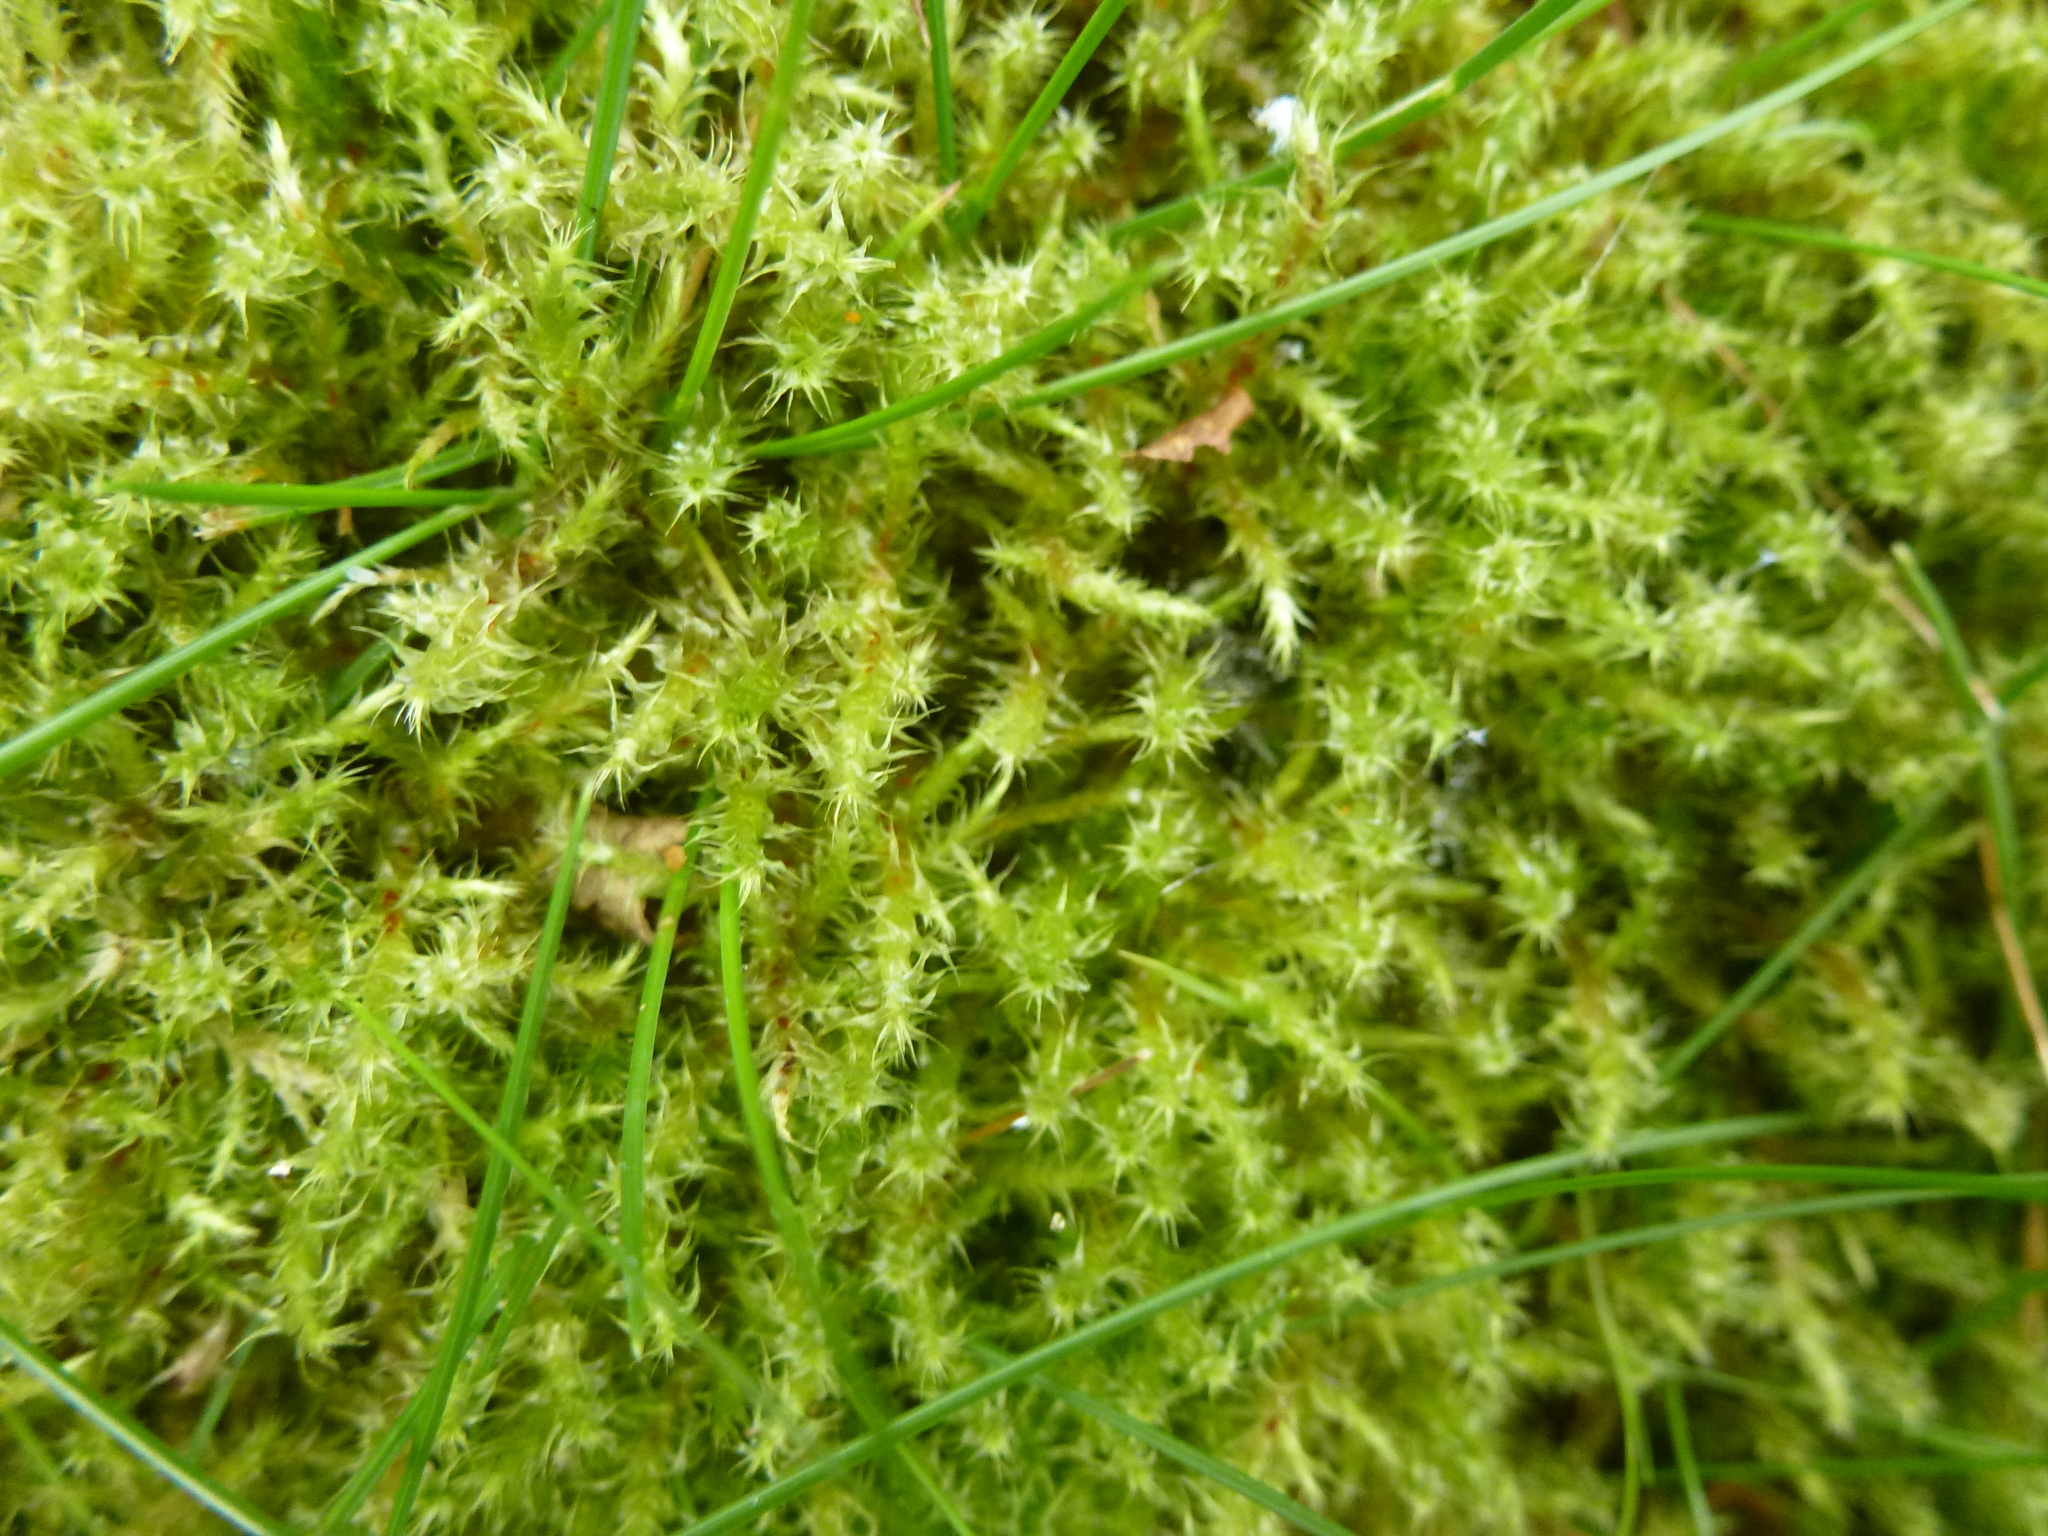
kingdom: Plantae
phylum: Bryophyta
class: Bryopsida
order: Hypnales
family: Hylocomiaceae
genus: Rhytidiadelphus
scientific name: Rhytidiadelphus squarrosus
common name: Springy turf-moss
